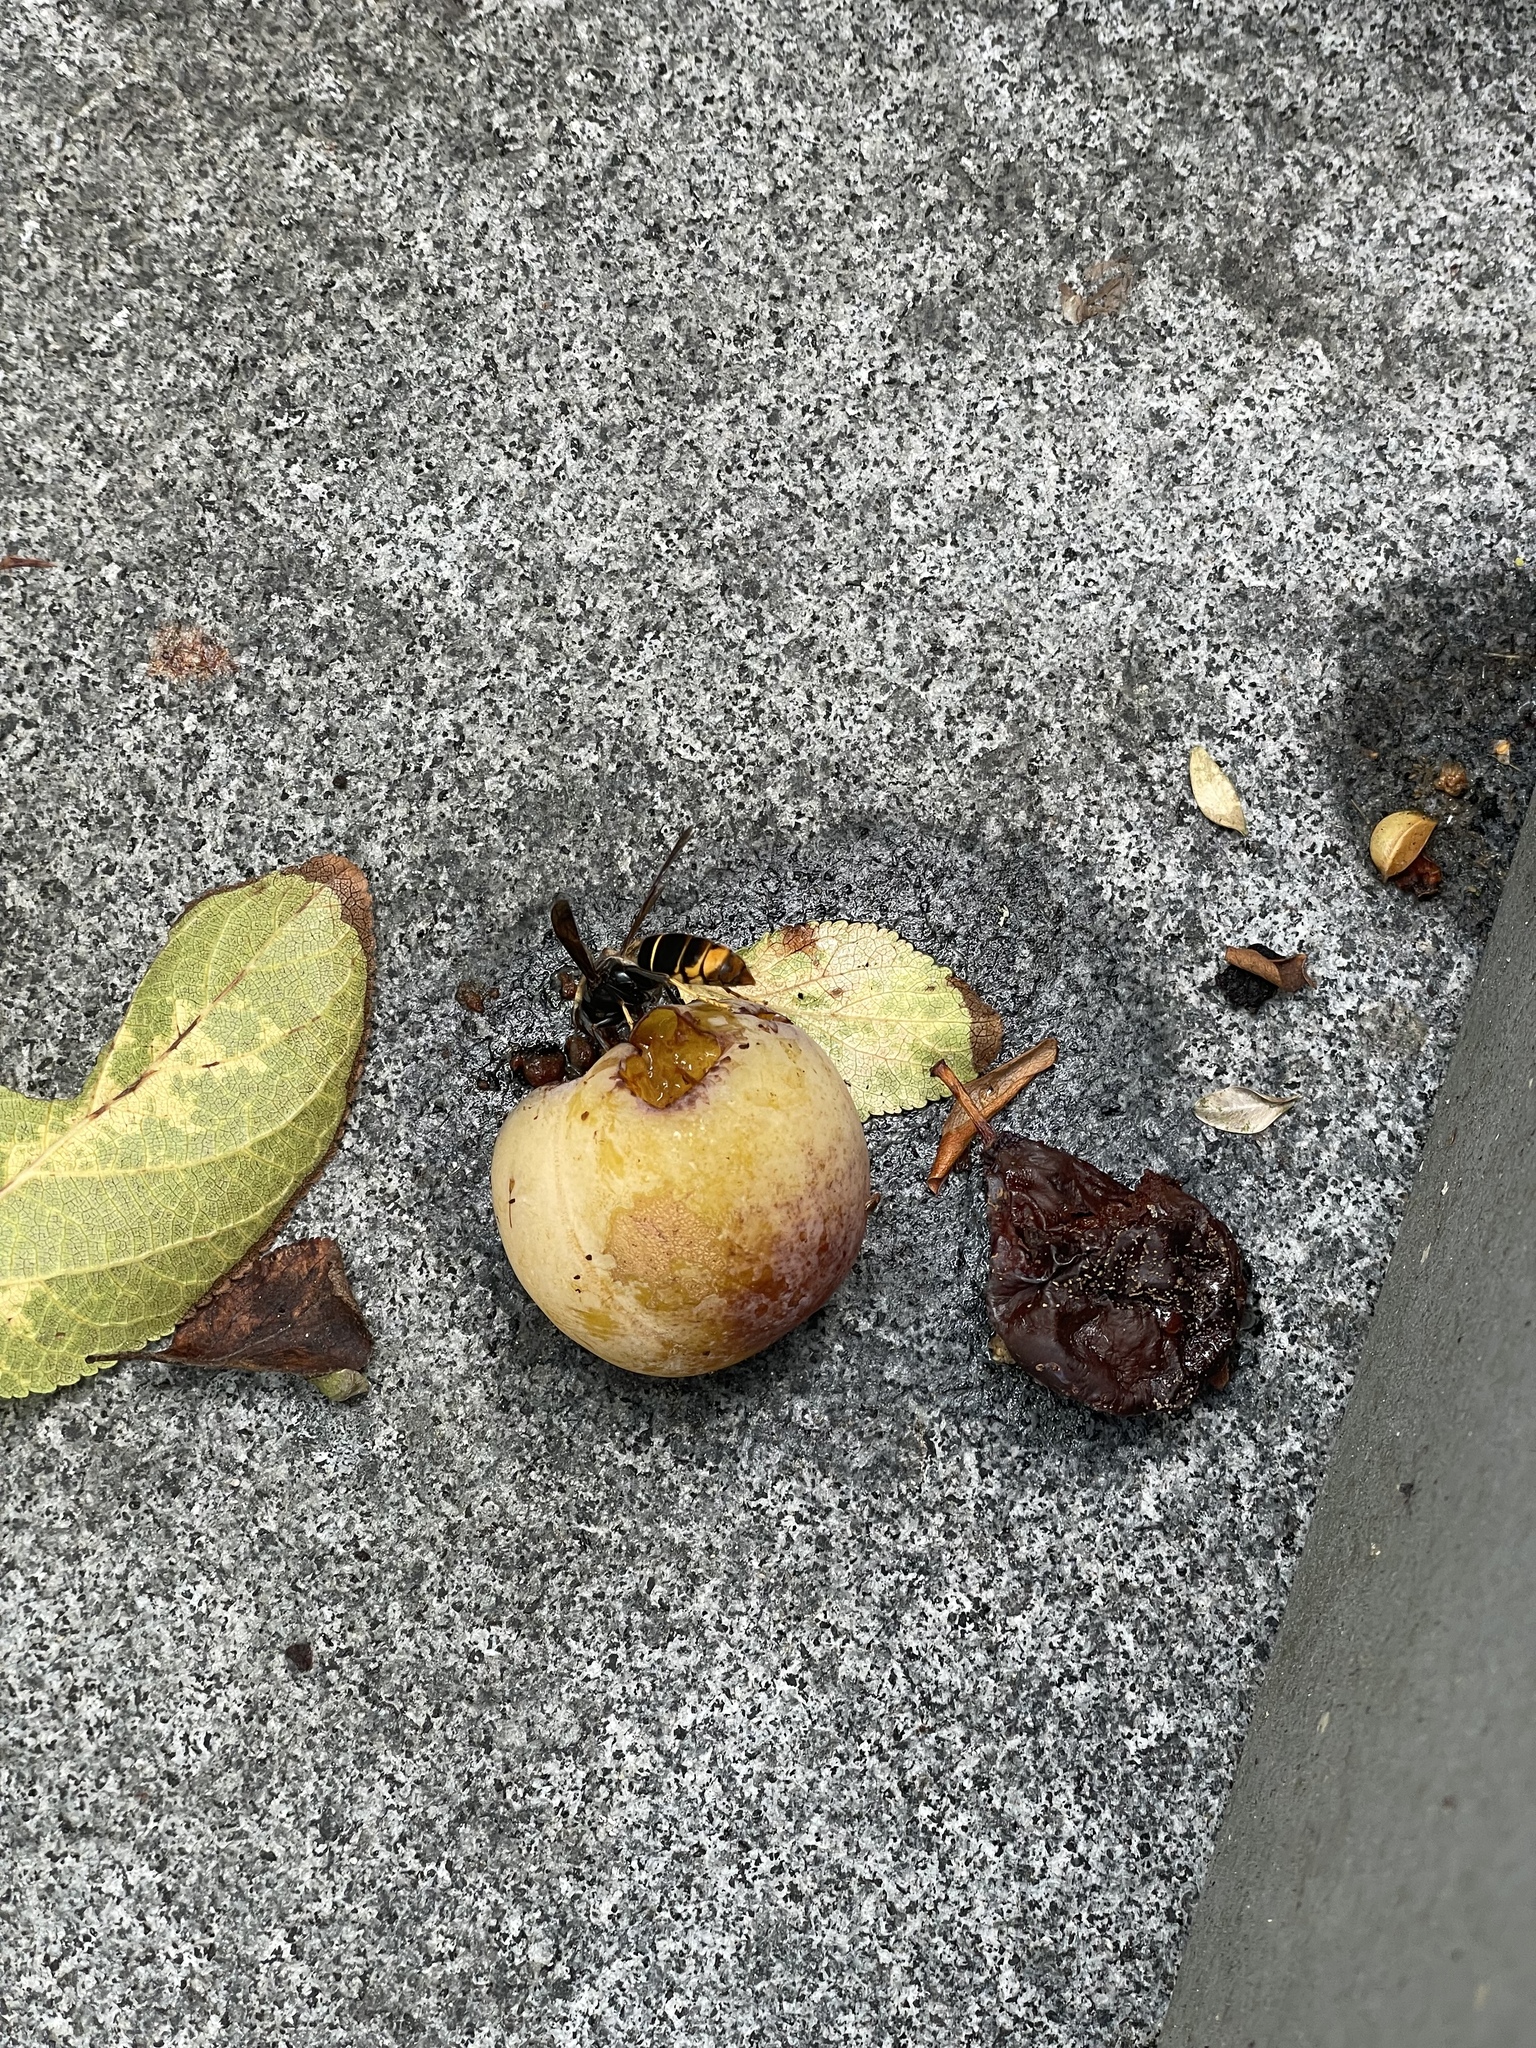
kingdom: Animalia
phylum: Arthropoda
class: Insecta
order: Hymenoptera
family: Vespidae
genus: Vespa
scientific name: Vespa velutina
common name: Asian hornet
